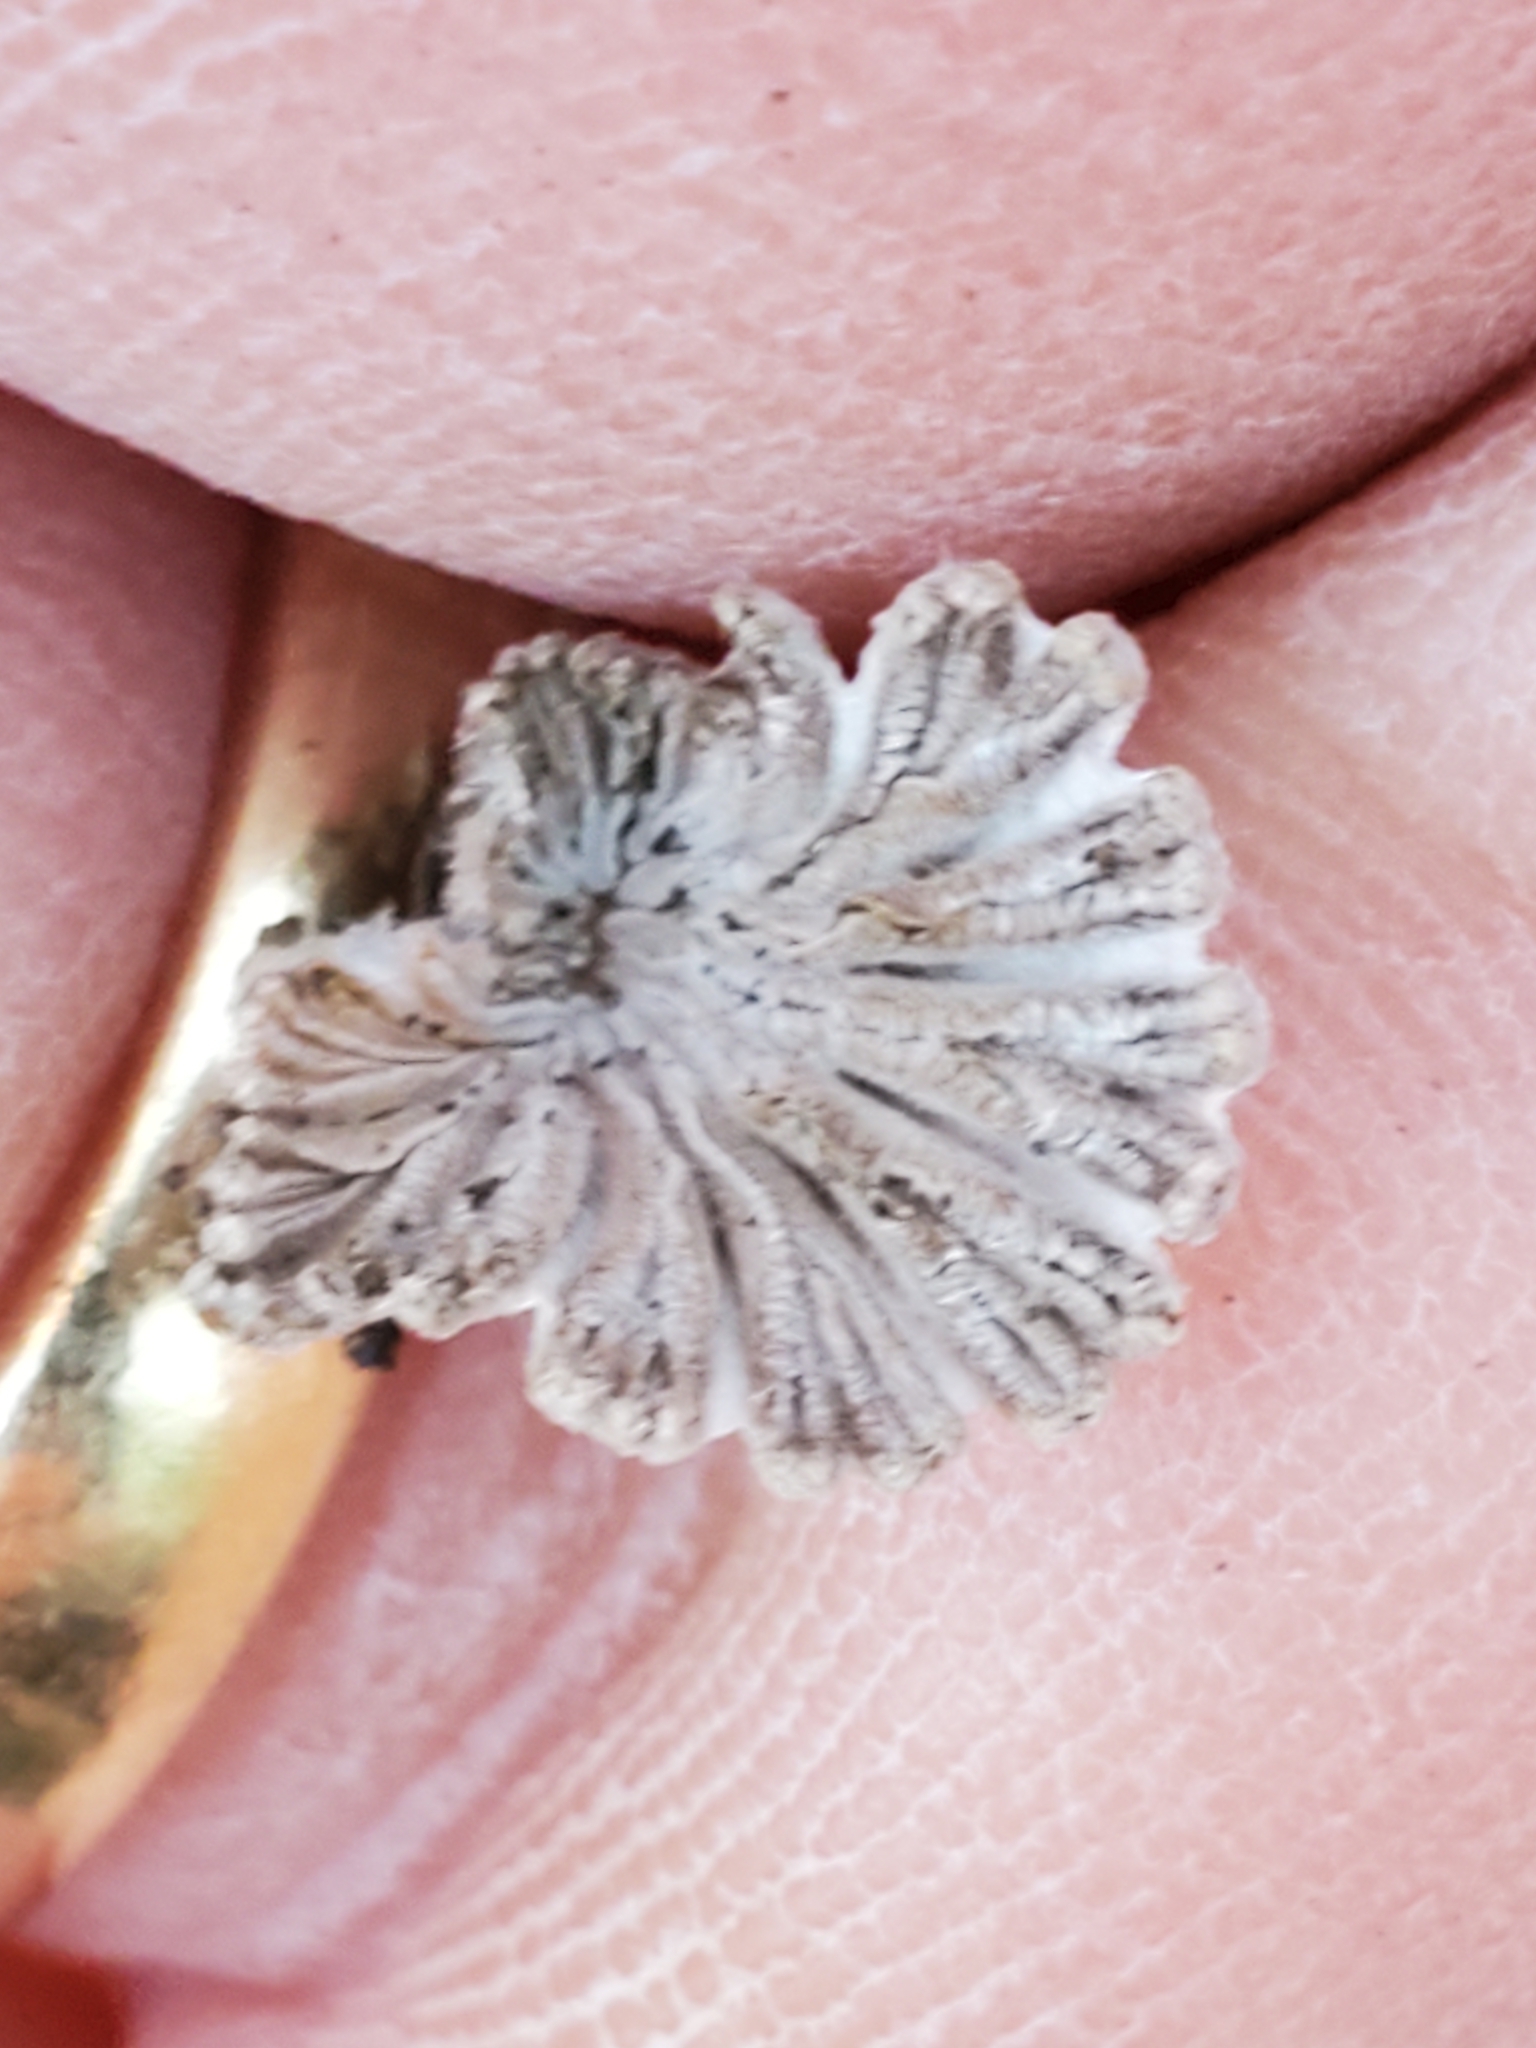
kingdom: Fungi
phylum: Basidiomycota
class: Agaricomycetes
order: Agaricales
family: Schizophyllaceae
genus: Schizophyllum
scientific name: Schizophyllum commune
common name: Common porecrust
